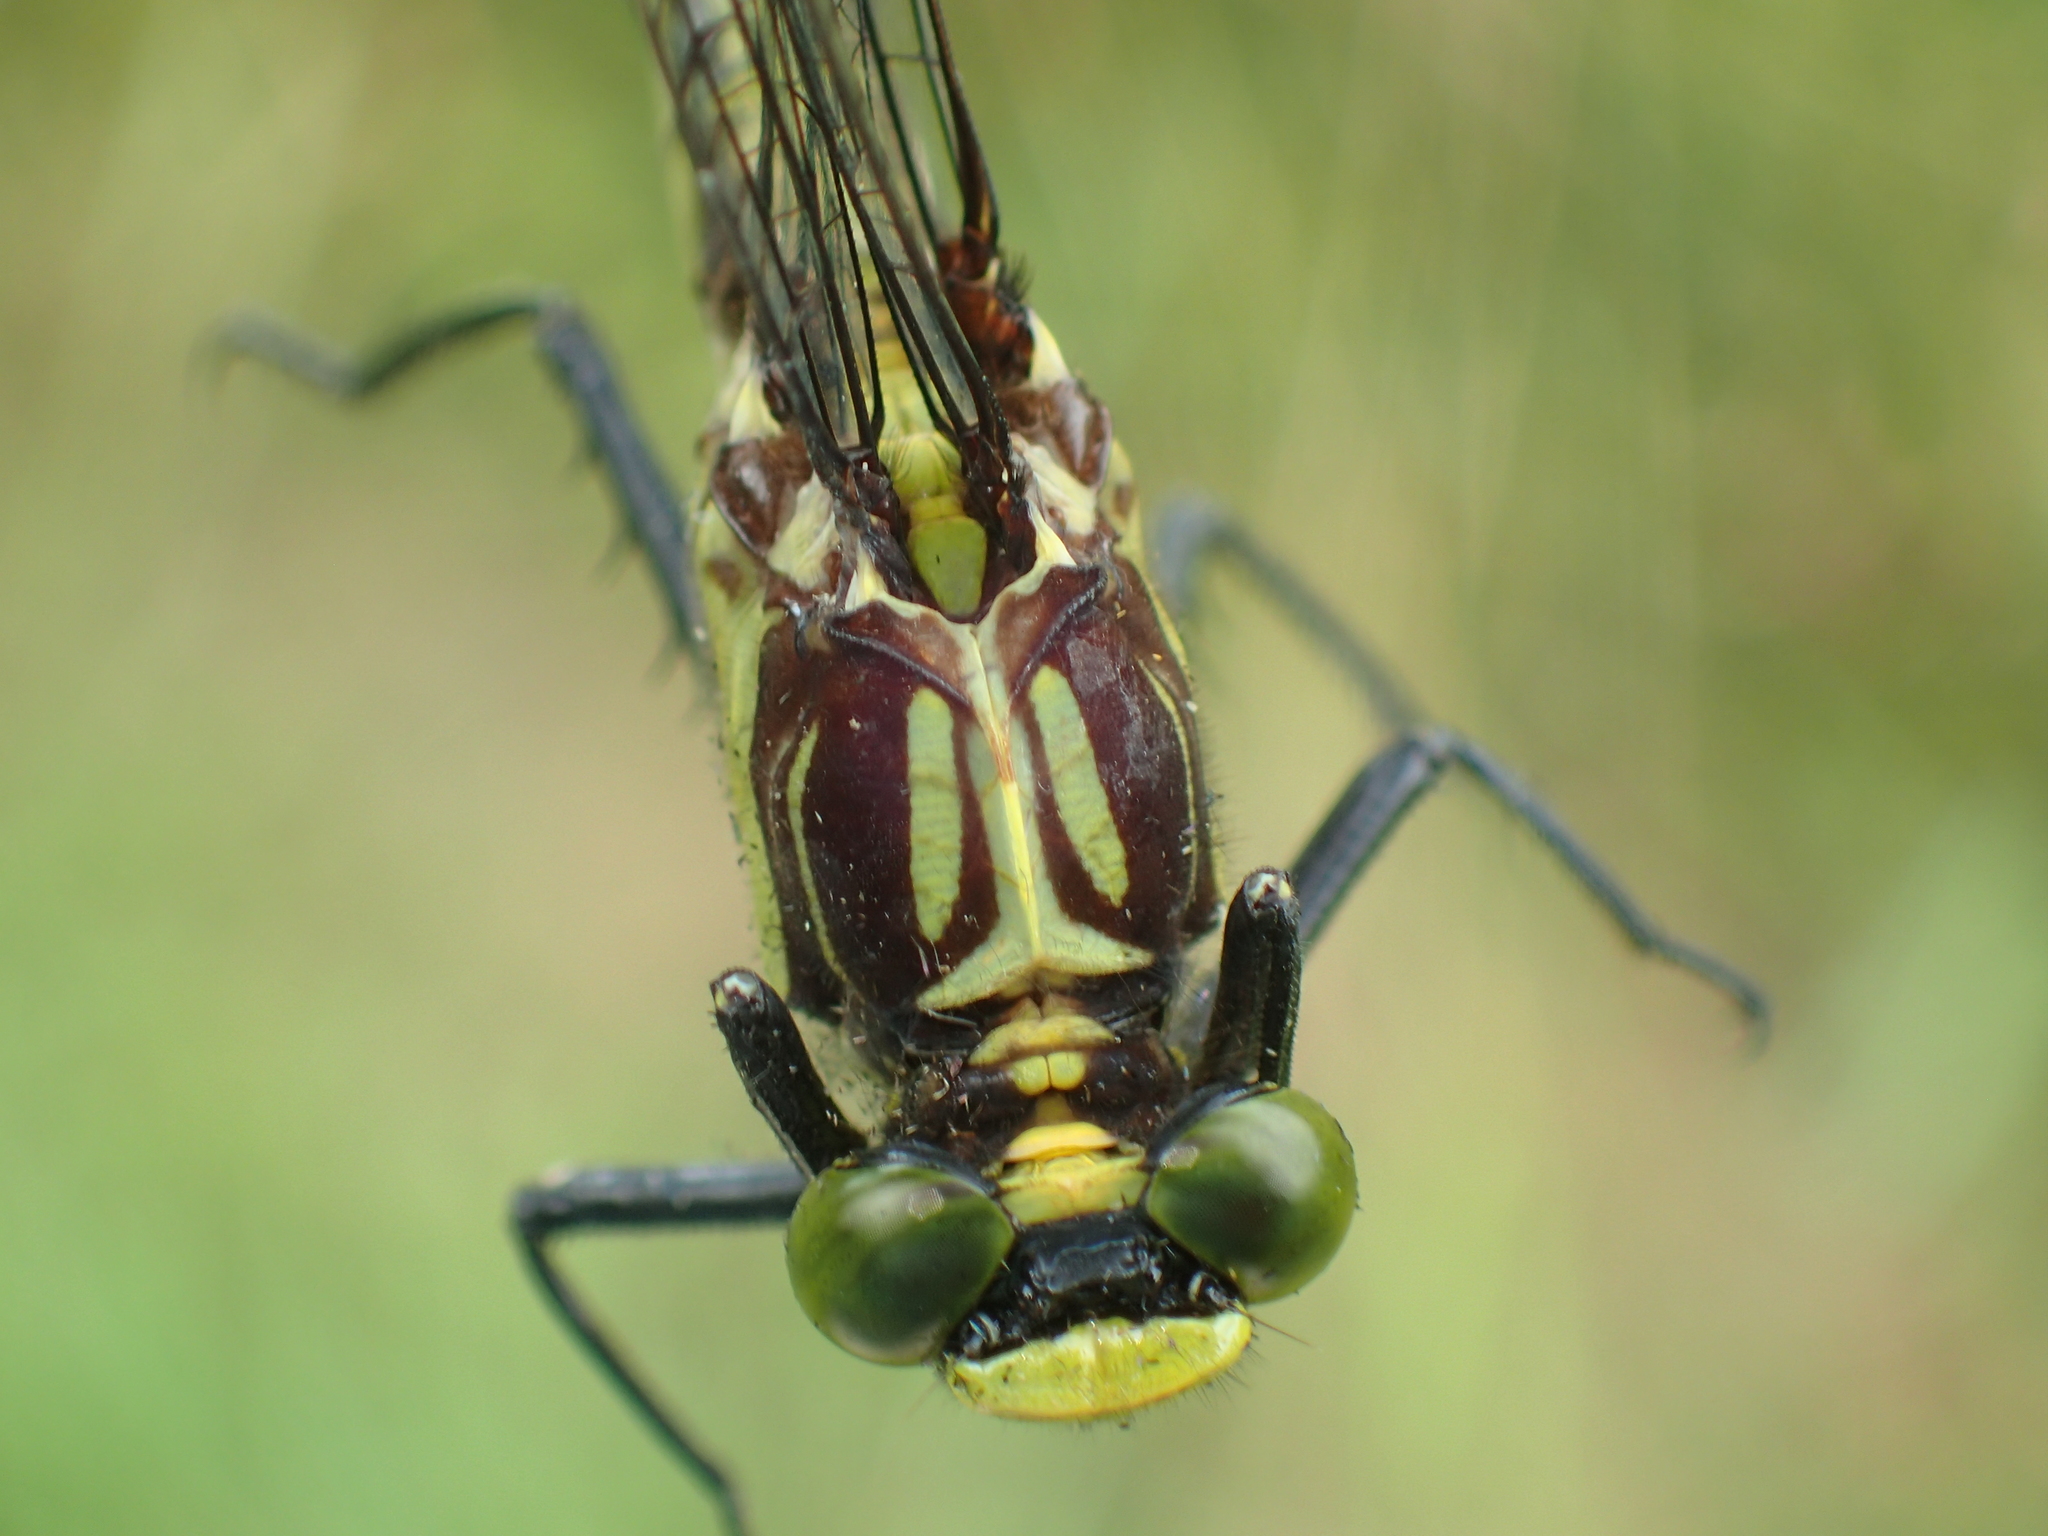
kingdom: Animalia
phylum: Arthropoda
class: Insecta
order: Odonata
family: Gomphidae
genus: Dromogomphus
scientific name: Dromogomphus spinosus
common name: Black-shouldered spinyleg
